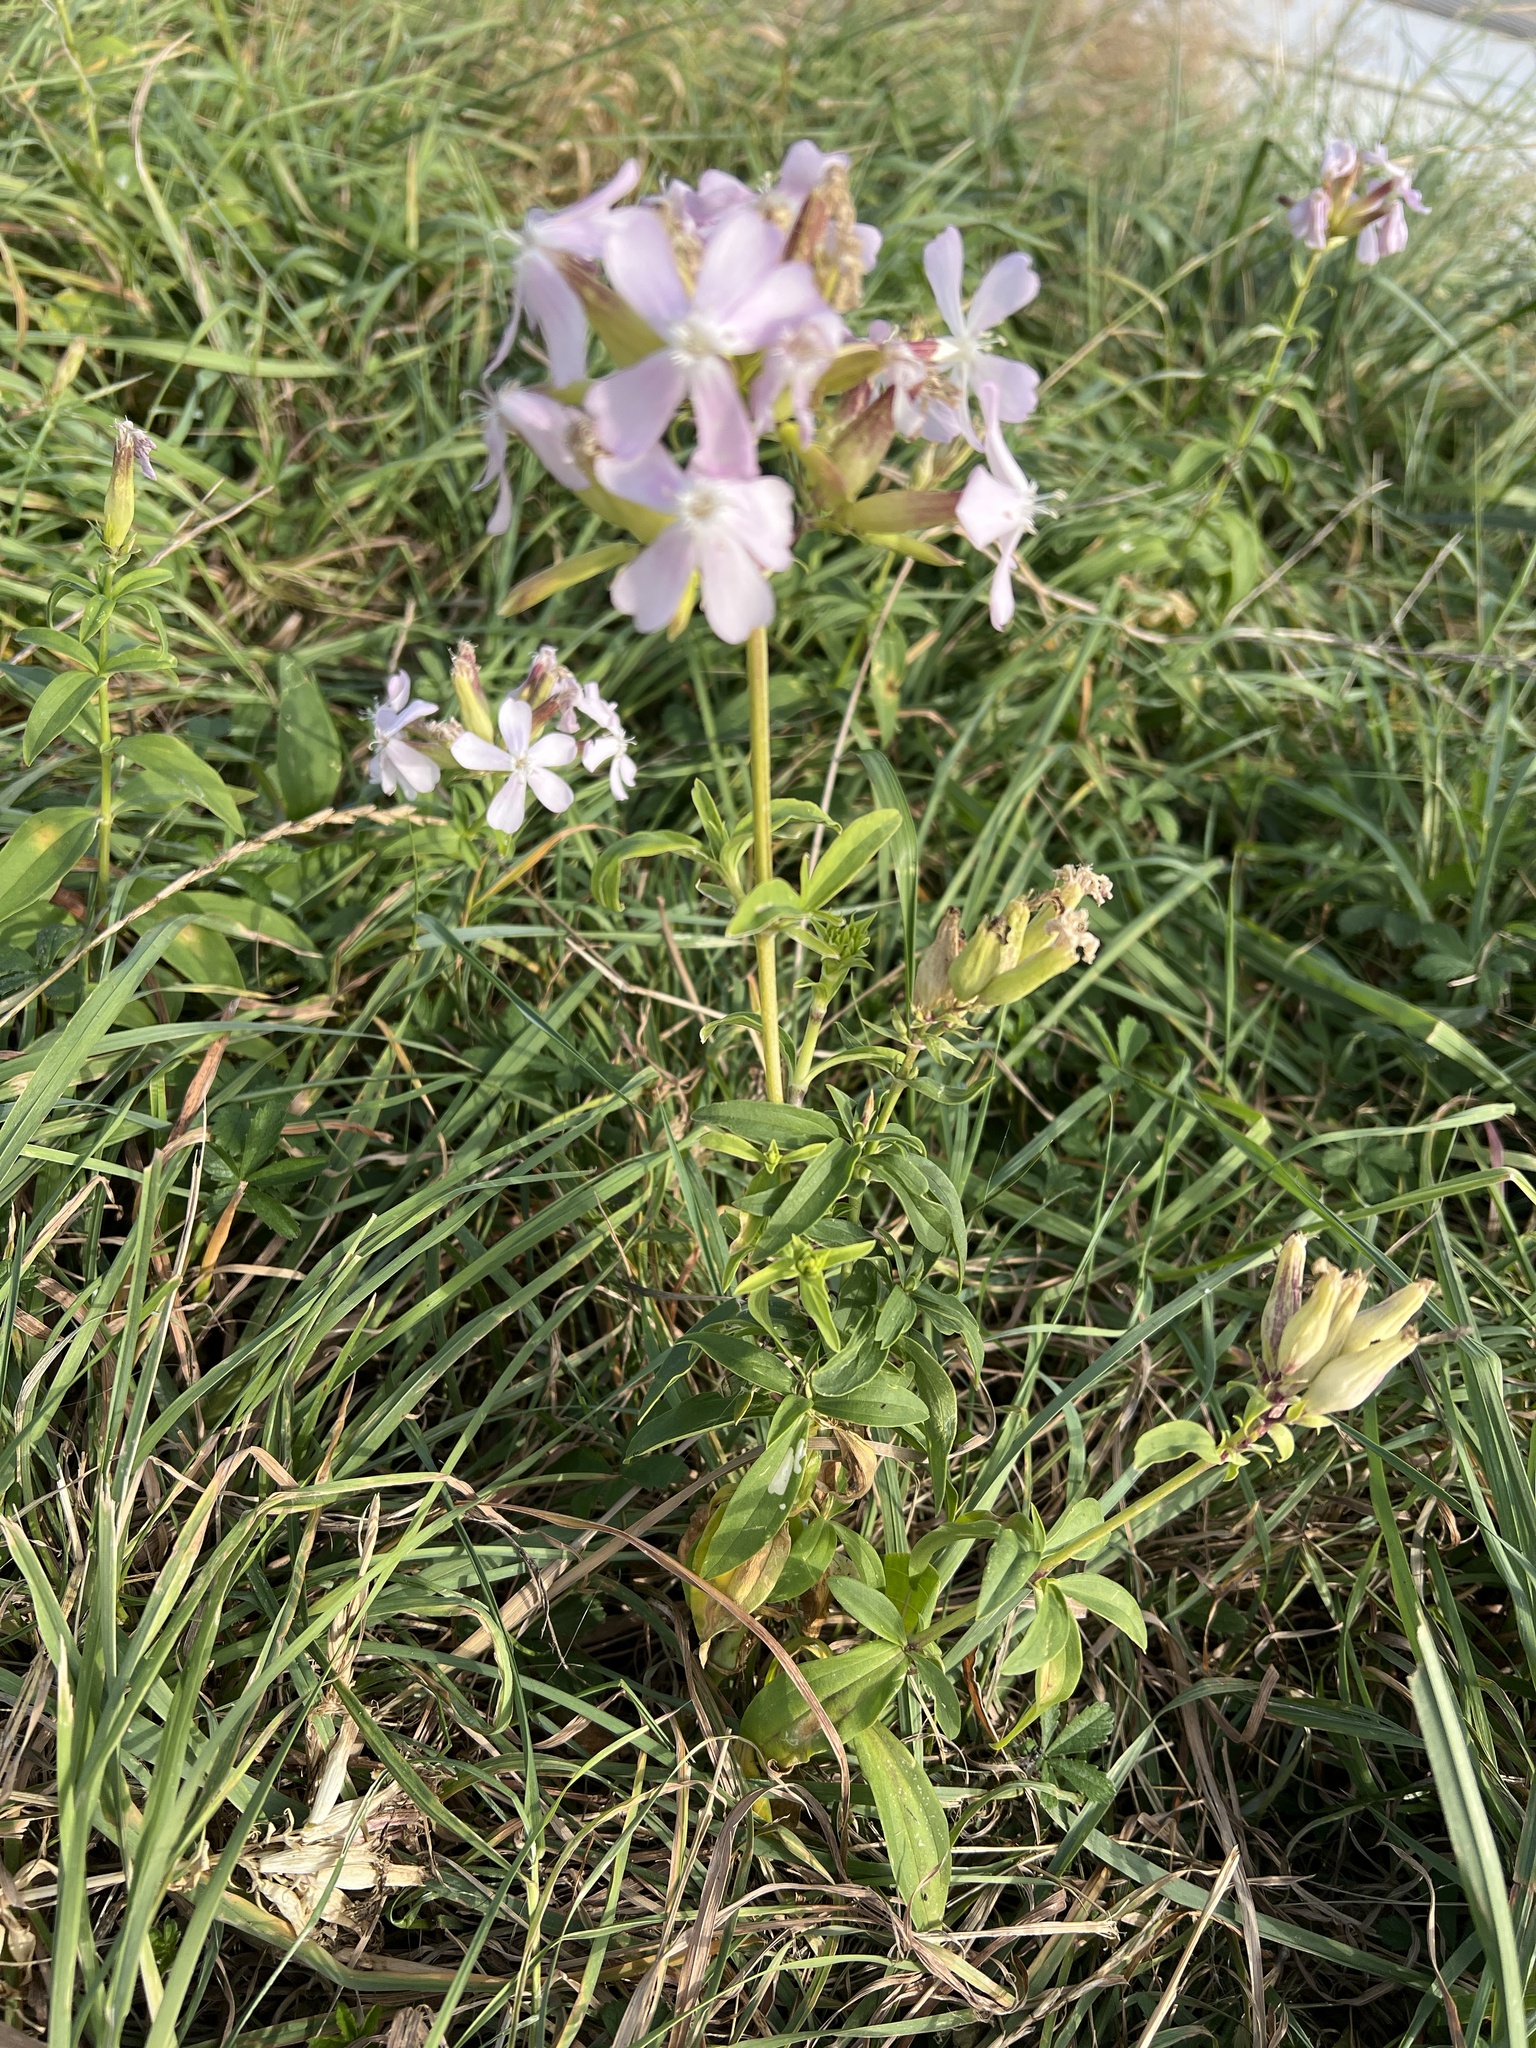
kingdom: Plantae
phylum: Tracheophyta
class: Magnoliopsida
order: Caryophyllales
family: Caryophyllaceae
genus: Saponaria
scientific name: Saponaria officinalis
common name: Soapwort
